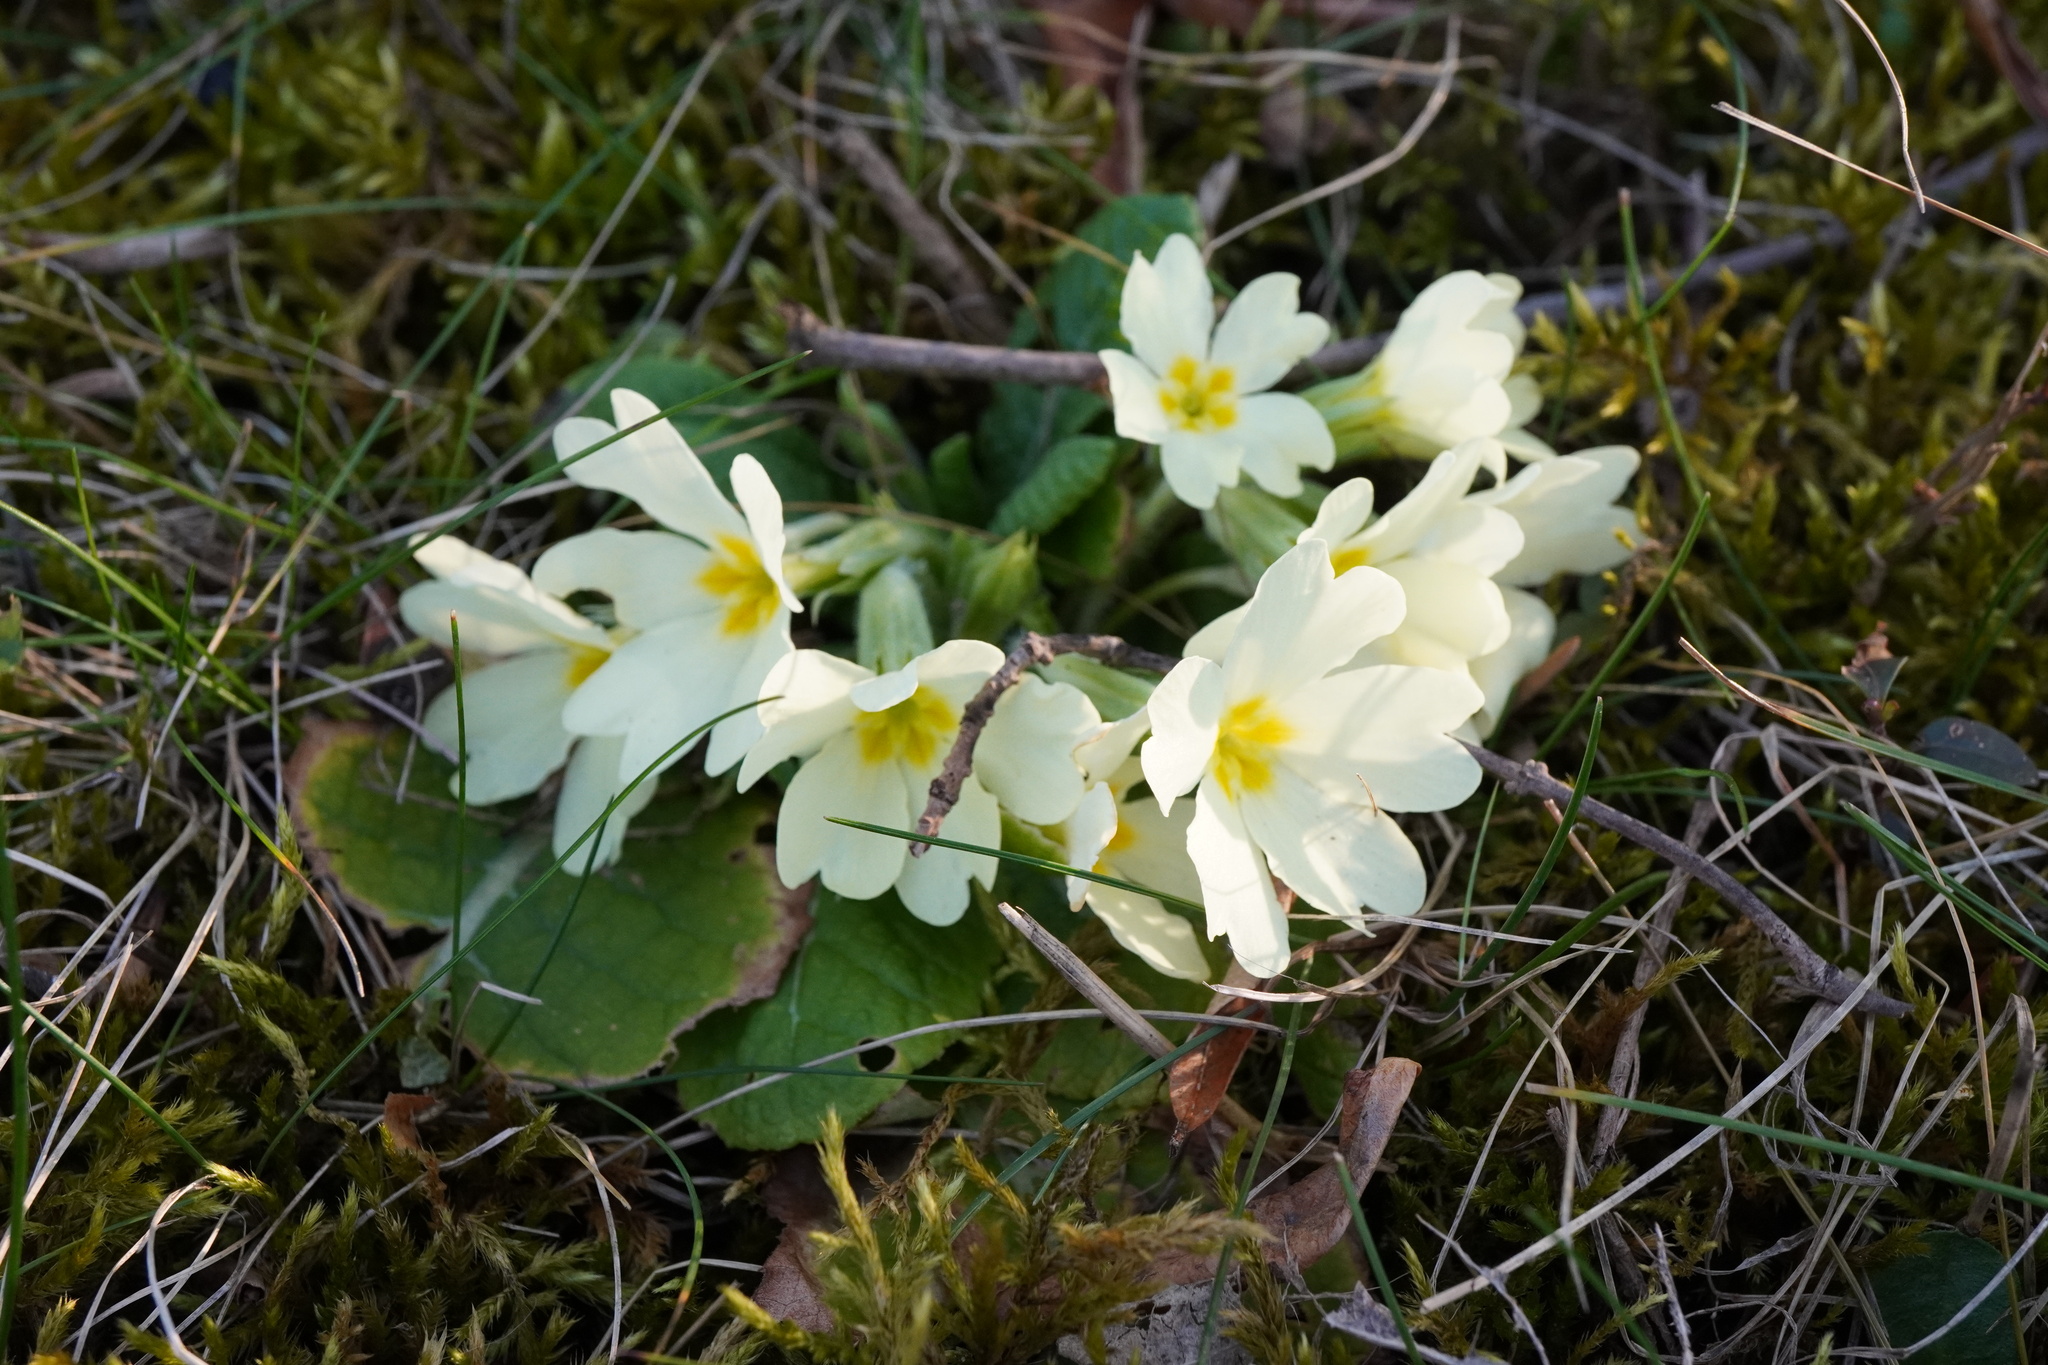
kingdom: Plantae
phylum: Tracheophyta
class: Magnoliopsida
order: Ericales
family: Primulaceae
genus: Primula
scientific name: Primula vulgaris
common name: Primrose
